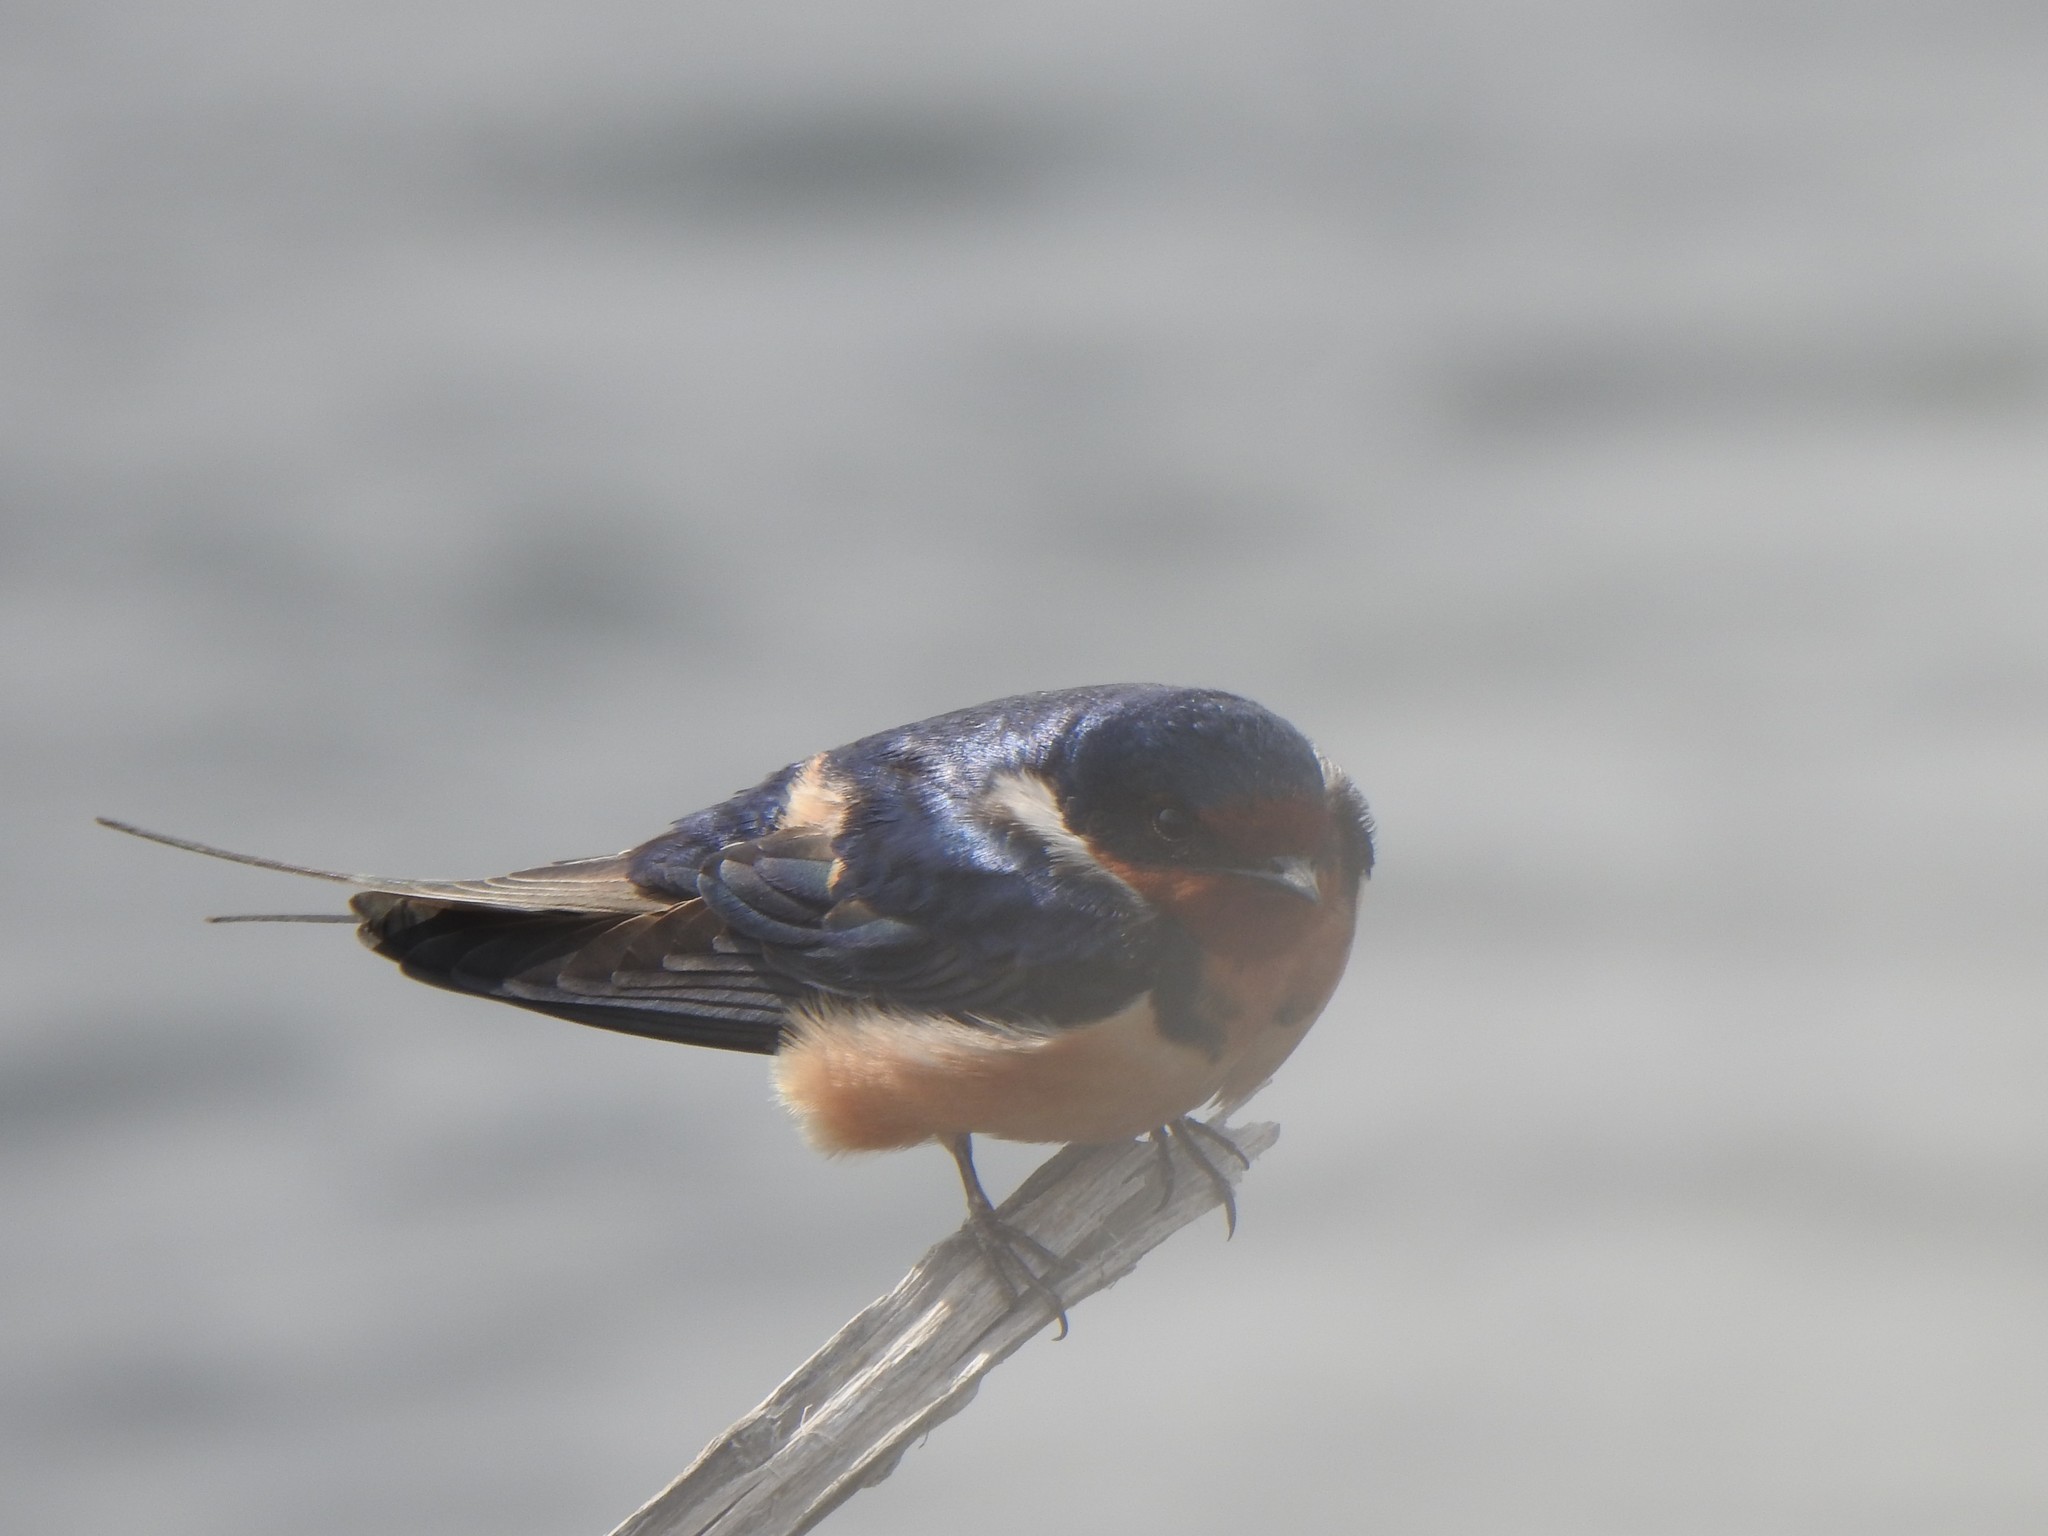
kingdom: Animalia
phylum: Chordata
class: Aves
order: Passeriformes
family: Hirundinidae
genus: Hirundo
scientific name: Hirundo rustica
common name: Barn swallow
